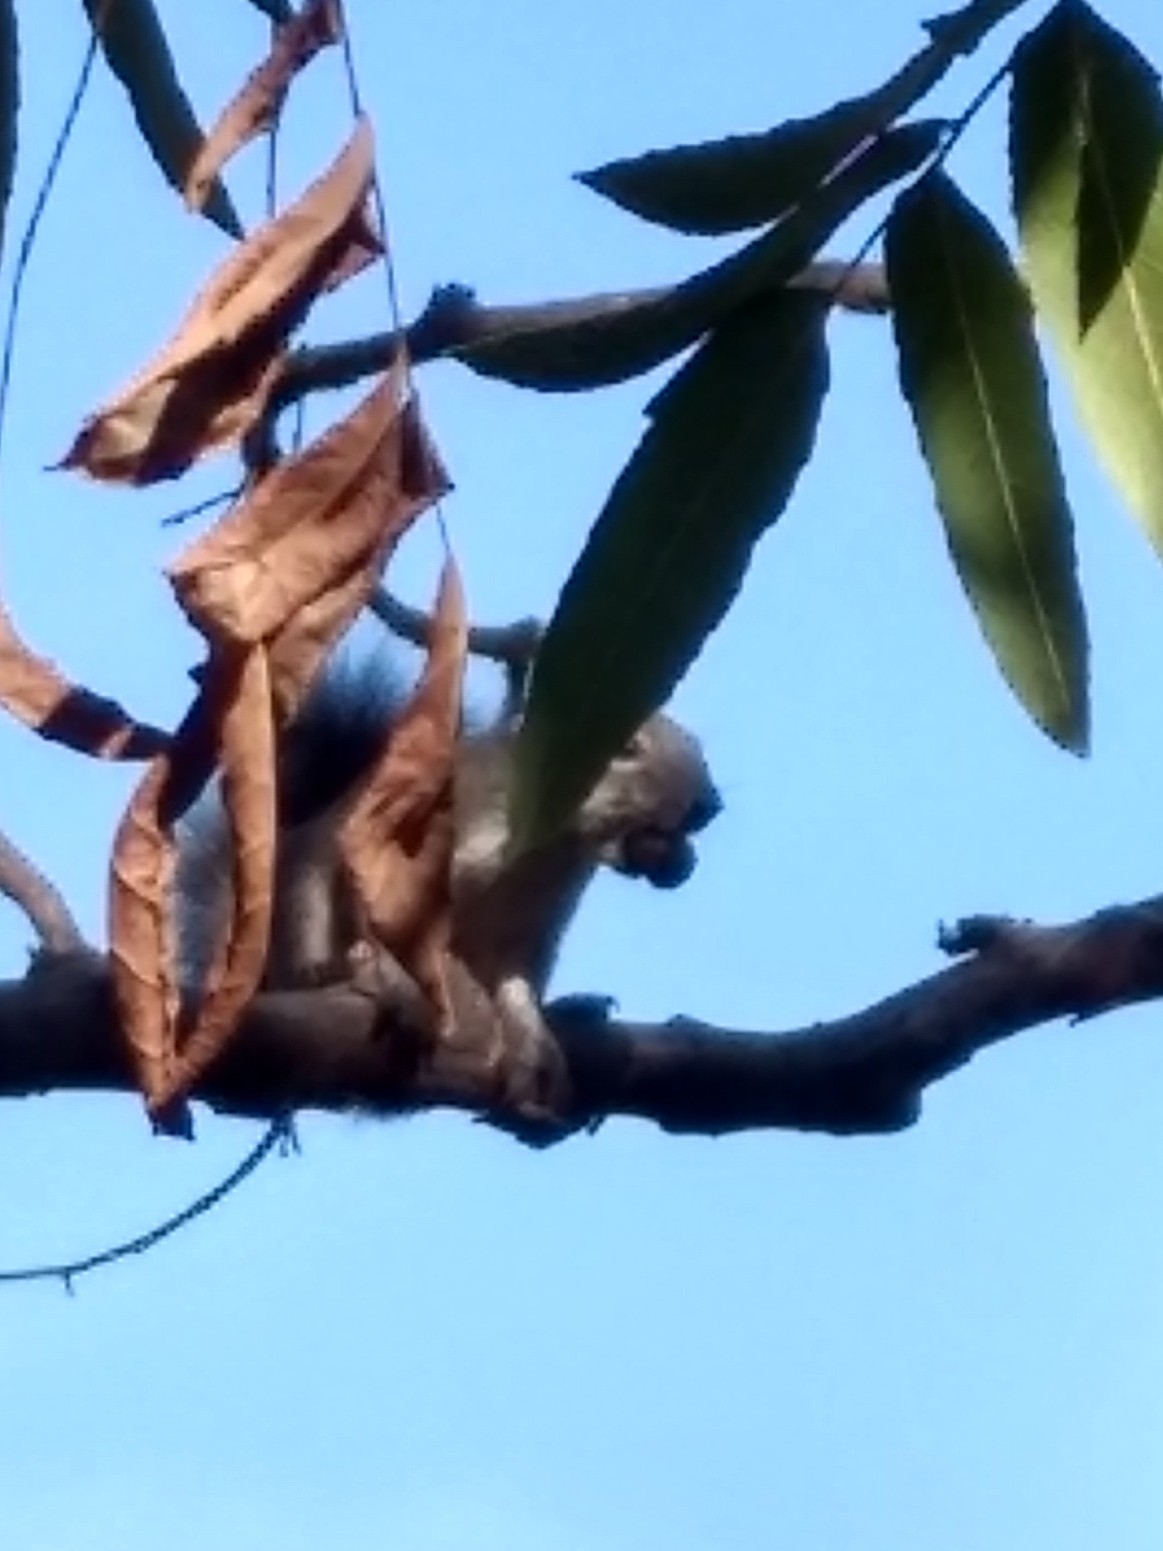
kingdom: Animalia
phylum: Chordata
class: Mammalia
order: Rodentia
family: Sciuridae
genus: Sciurus
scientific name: Sciurus griseus
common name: Western gray squirrel
